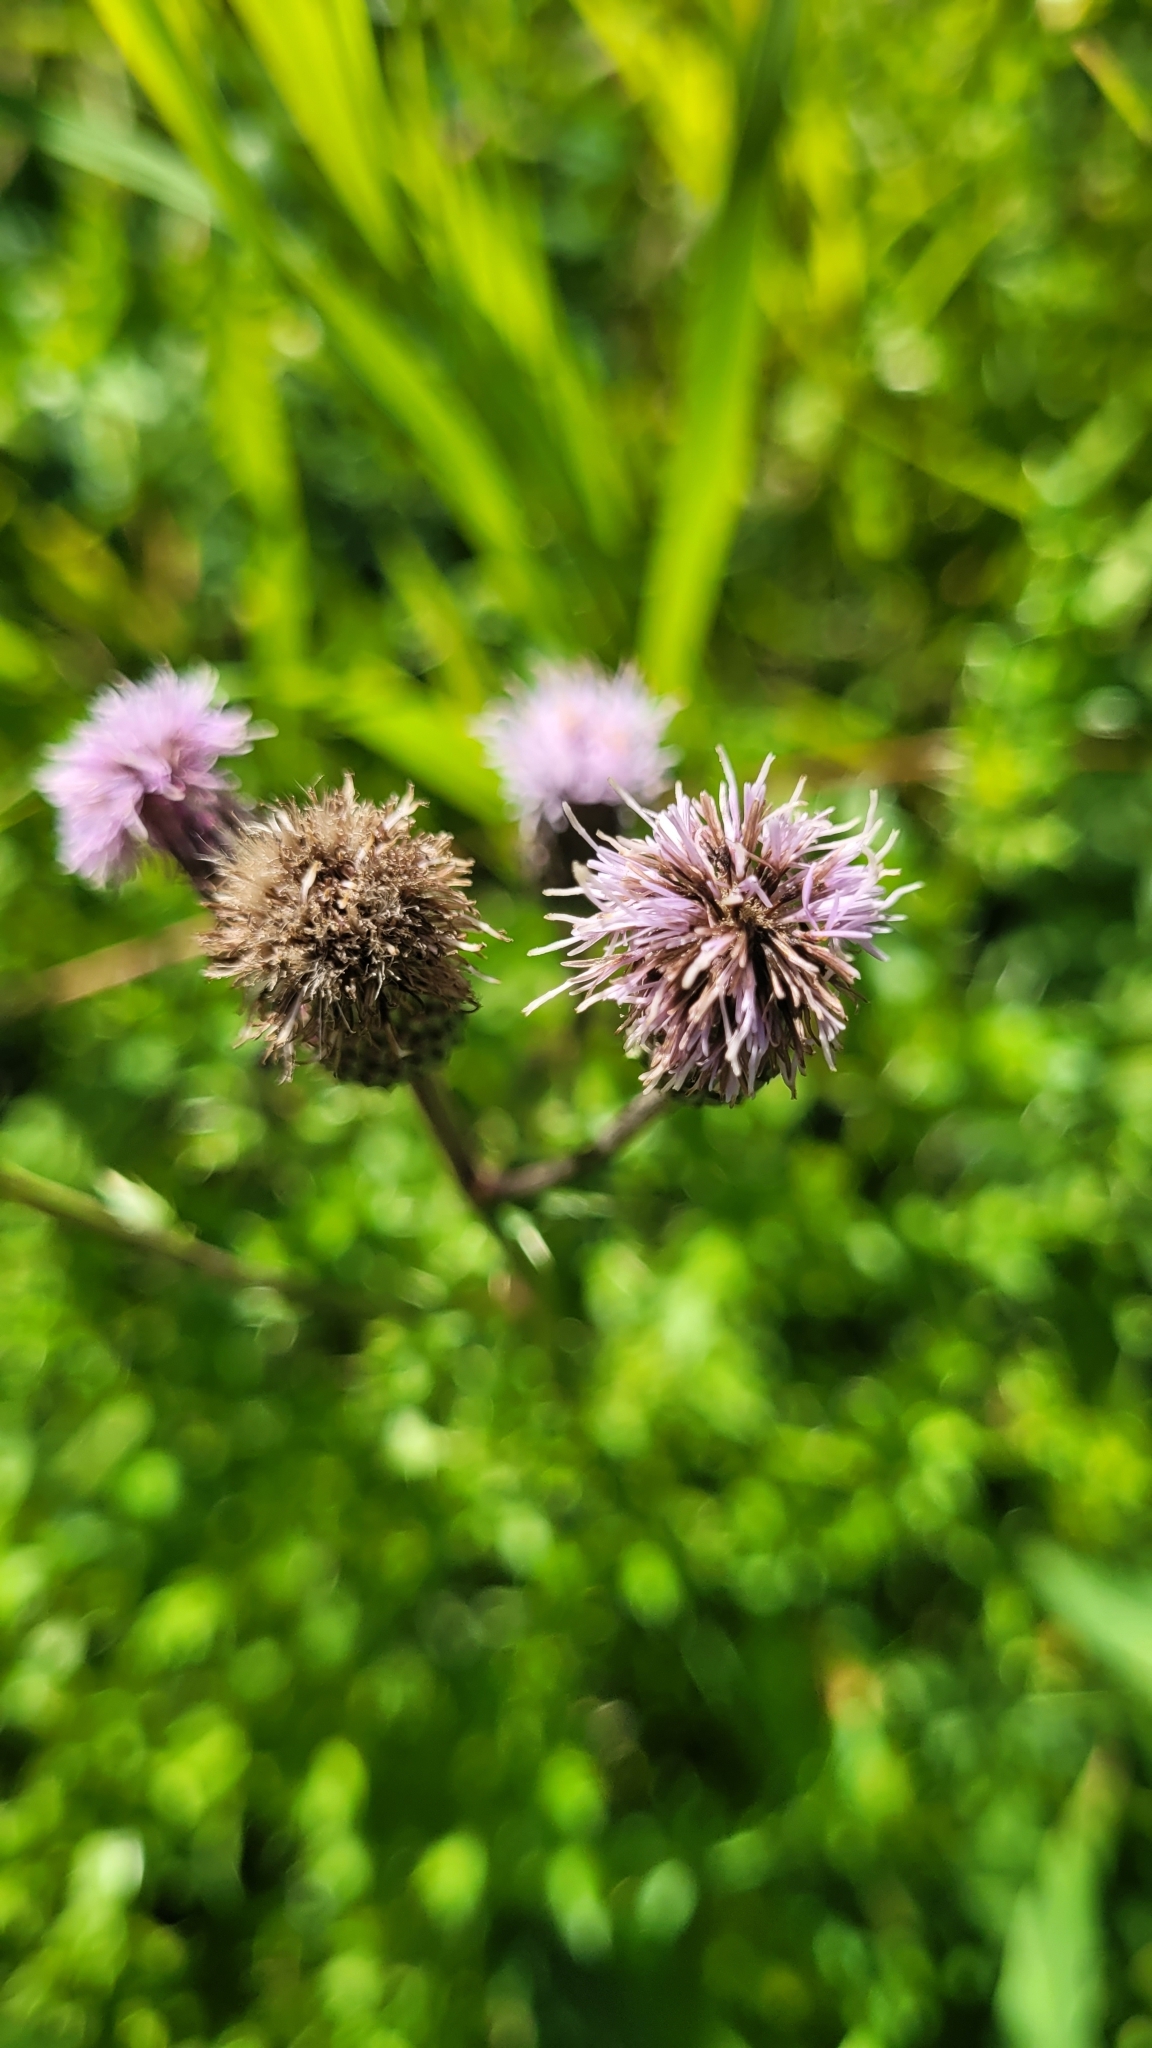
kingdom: Plantae
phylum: Tracheophyta
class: Magnoliopsida
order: Asterales
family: Asteraceae
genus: Cirsium
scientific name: Cirsium arvense
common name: Creeping thistle
